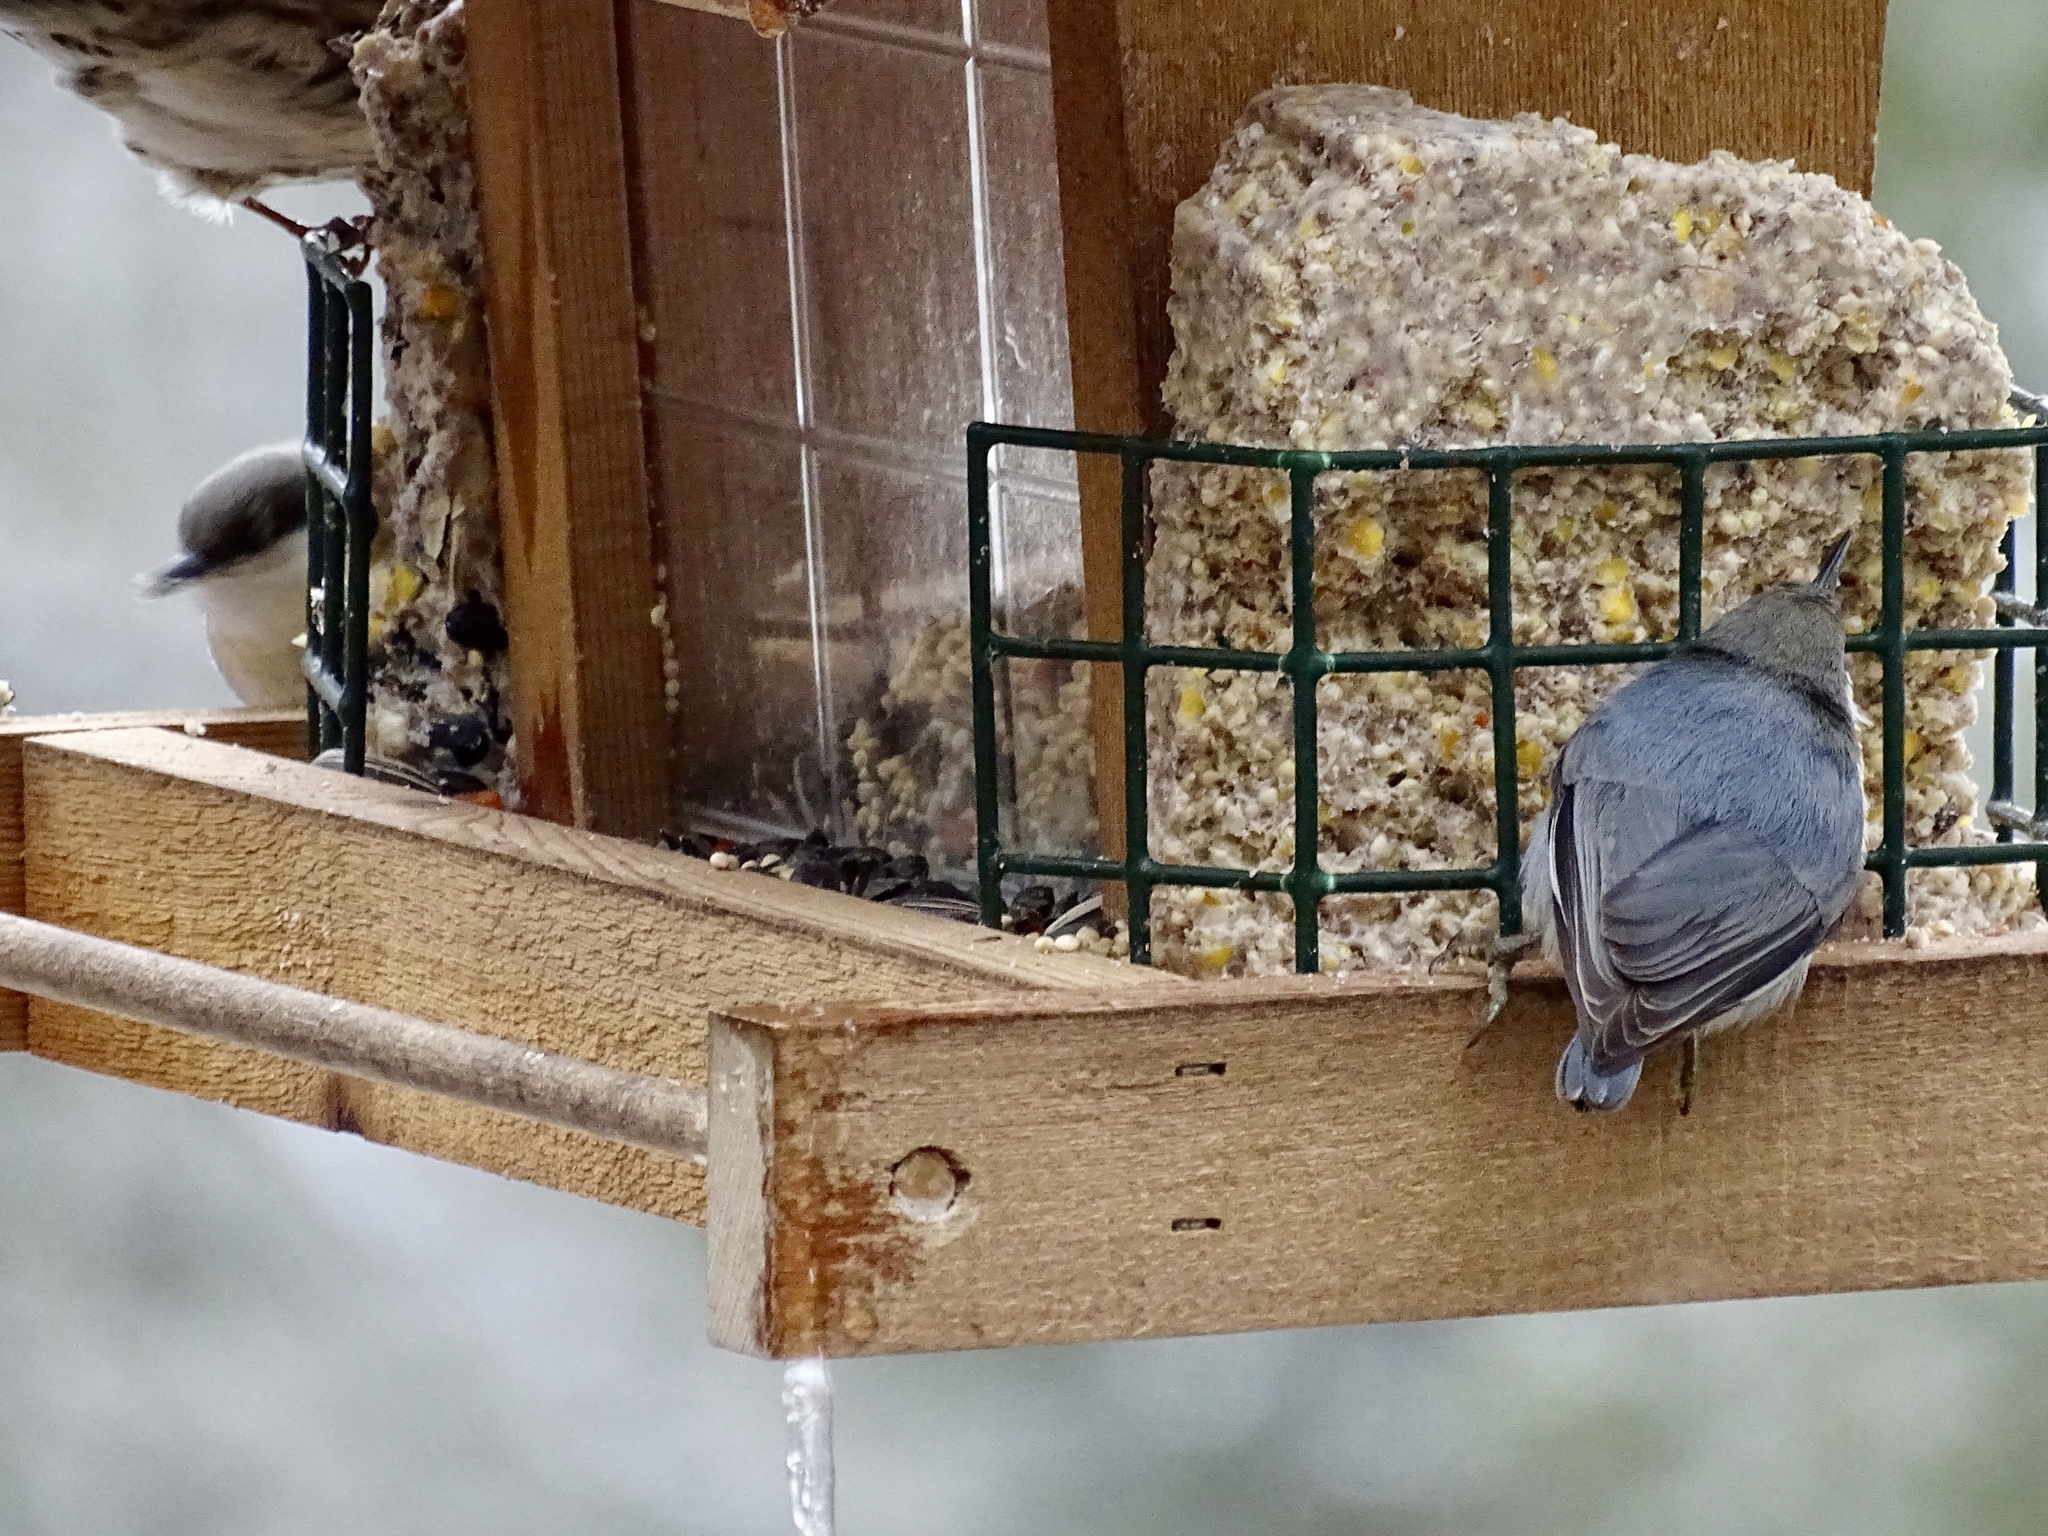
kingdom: Animalia
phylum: Chordata
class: Aves
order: Passeriformes
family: Sittidae
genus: Sitta
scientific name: Sitta pygmaea
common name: Pygmy nuthatch
